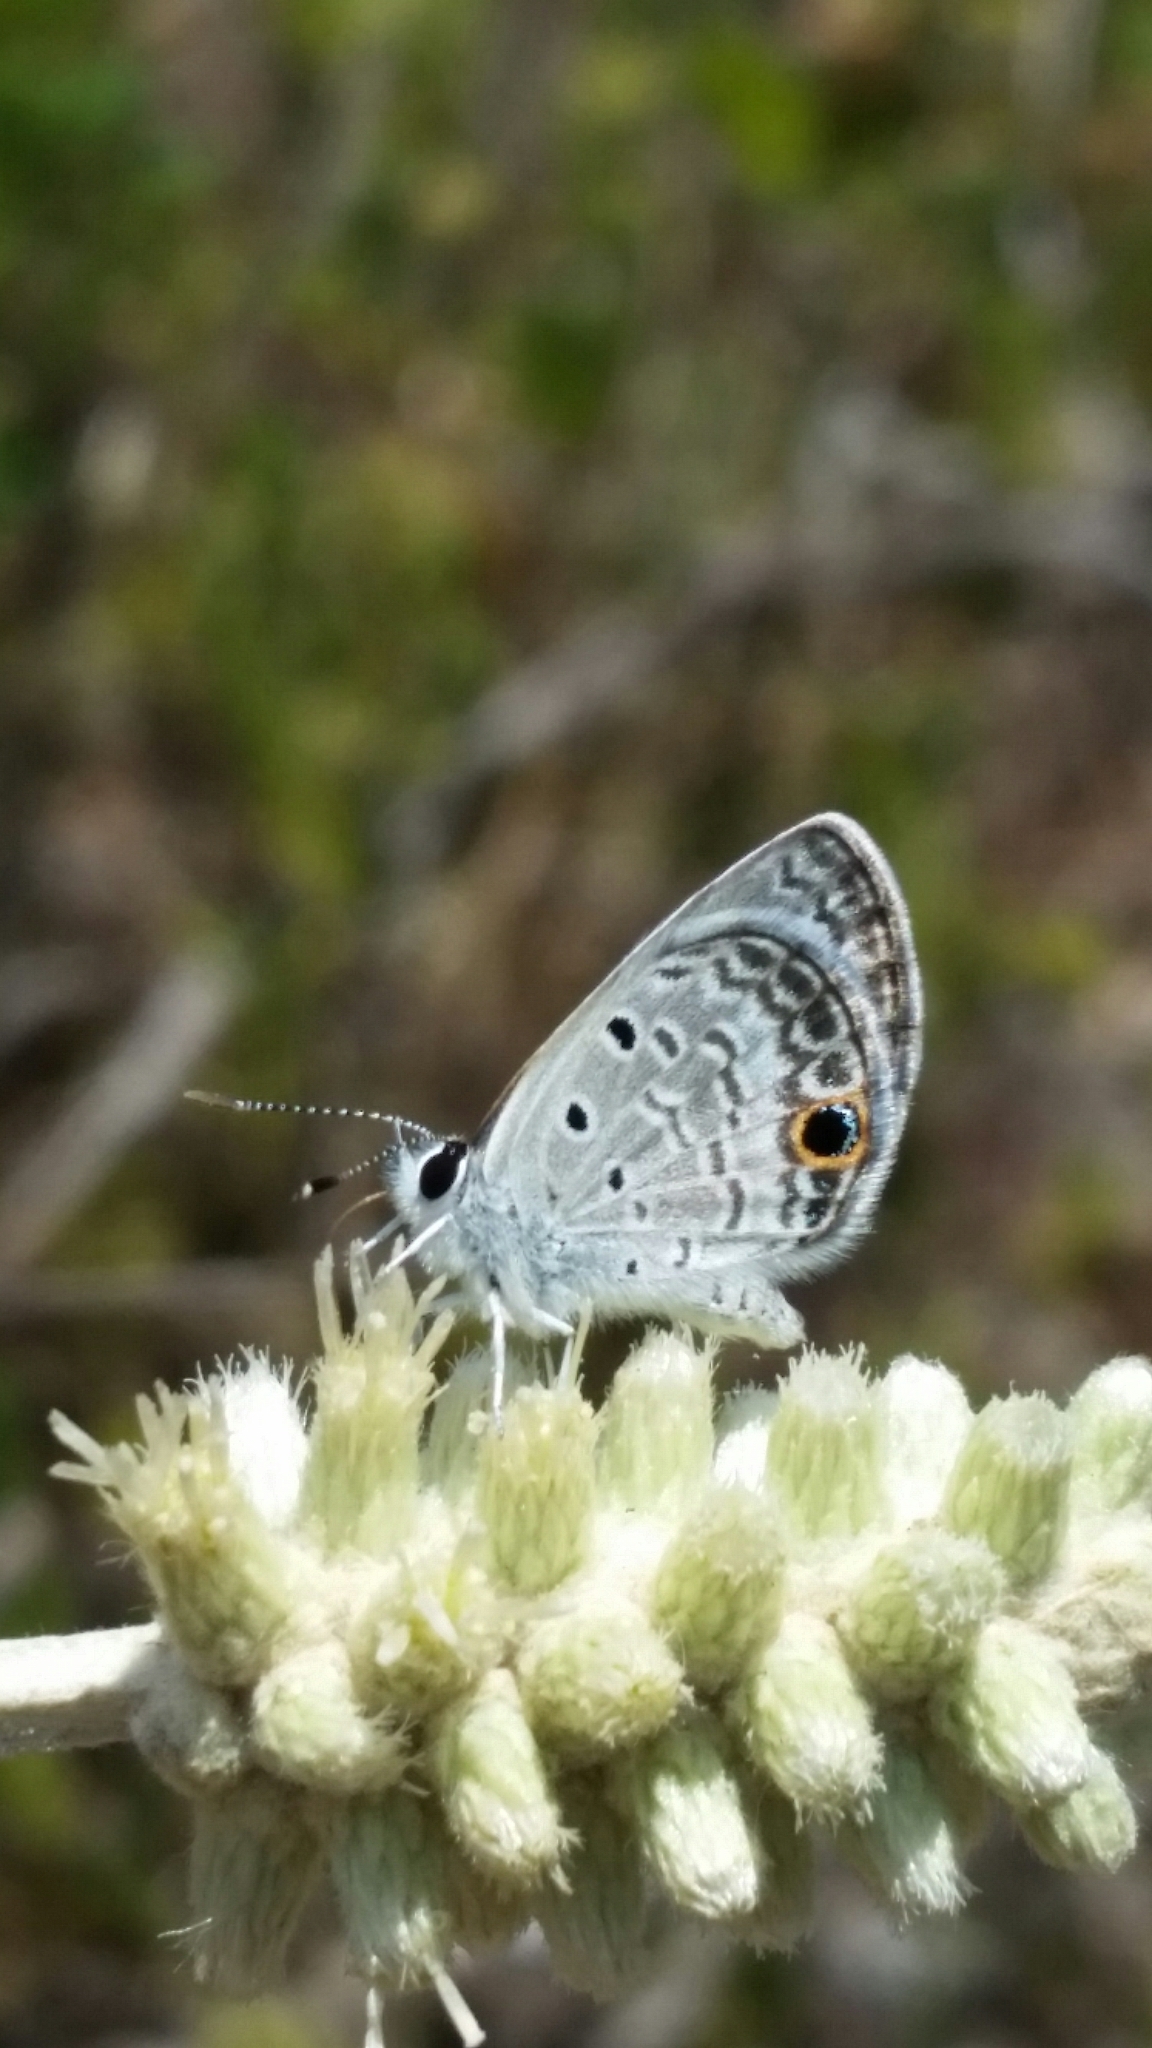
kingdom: Animalia
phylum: Arthropoda
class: Insecta
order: Lepidoptera
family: Lycaenidae
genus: Hemiargus
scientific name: Hemiargus ceraunus
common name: Ceraunus blue
